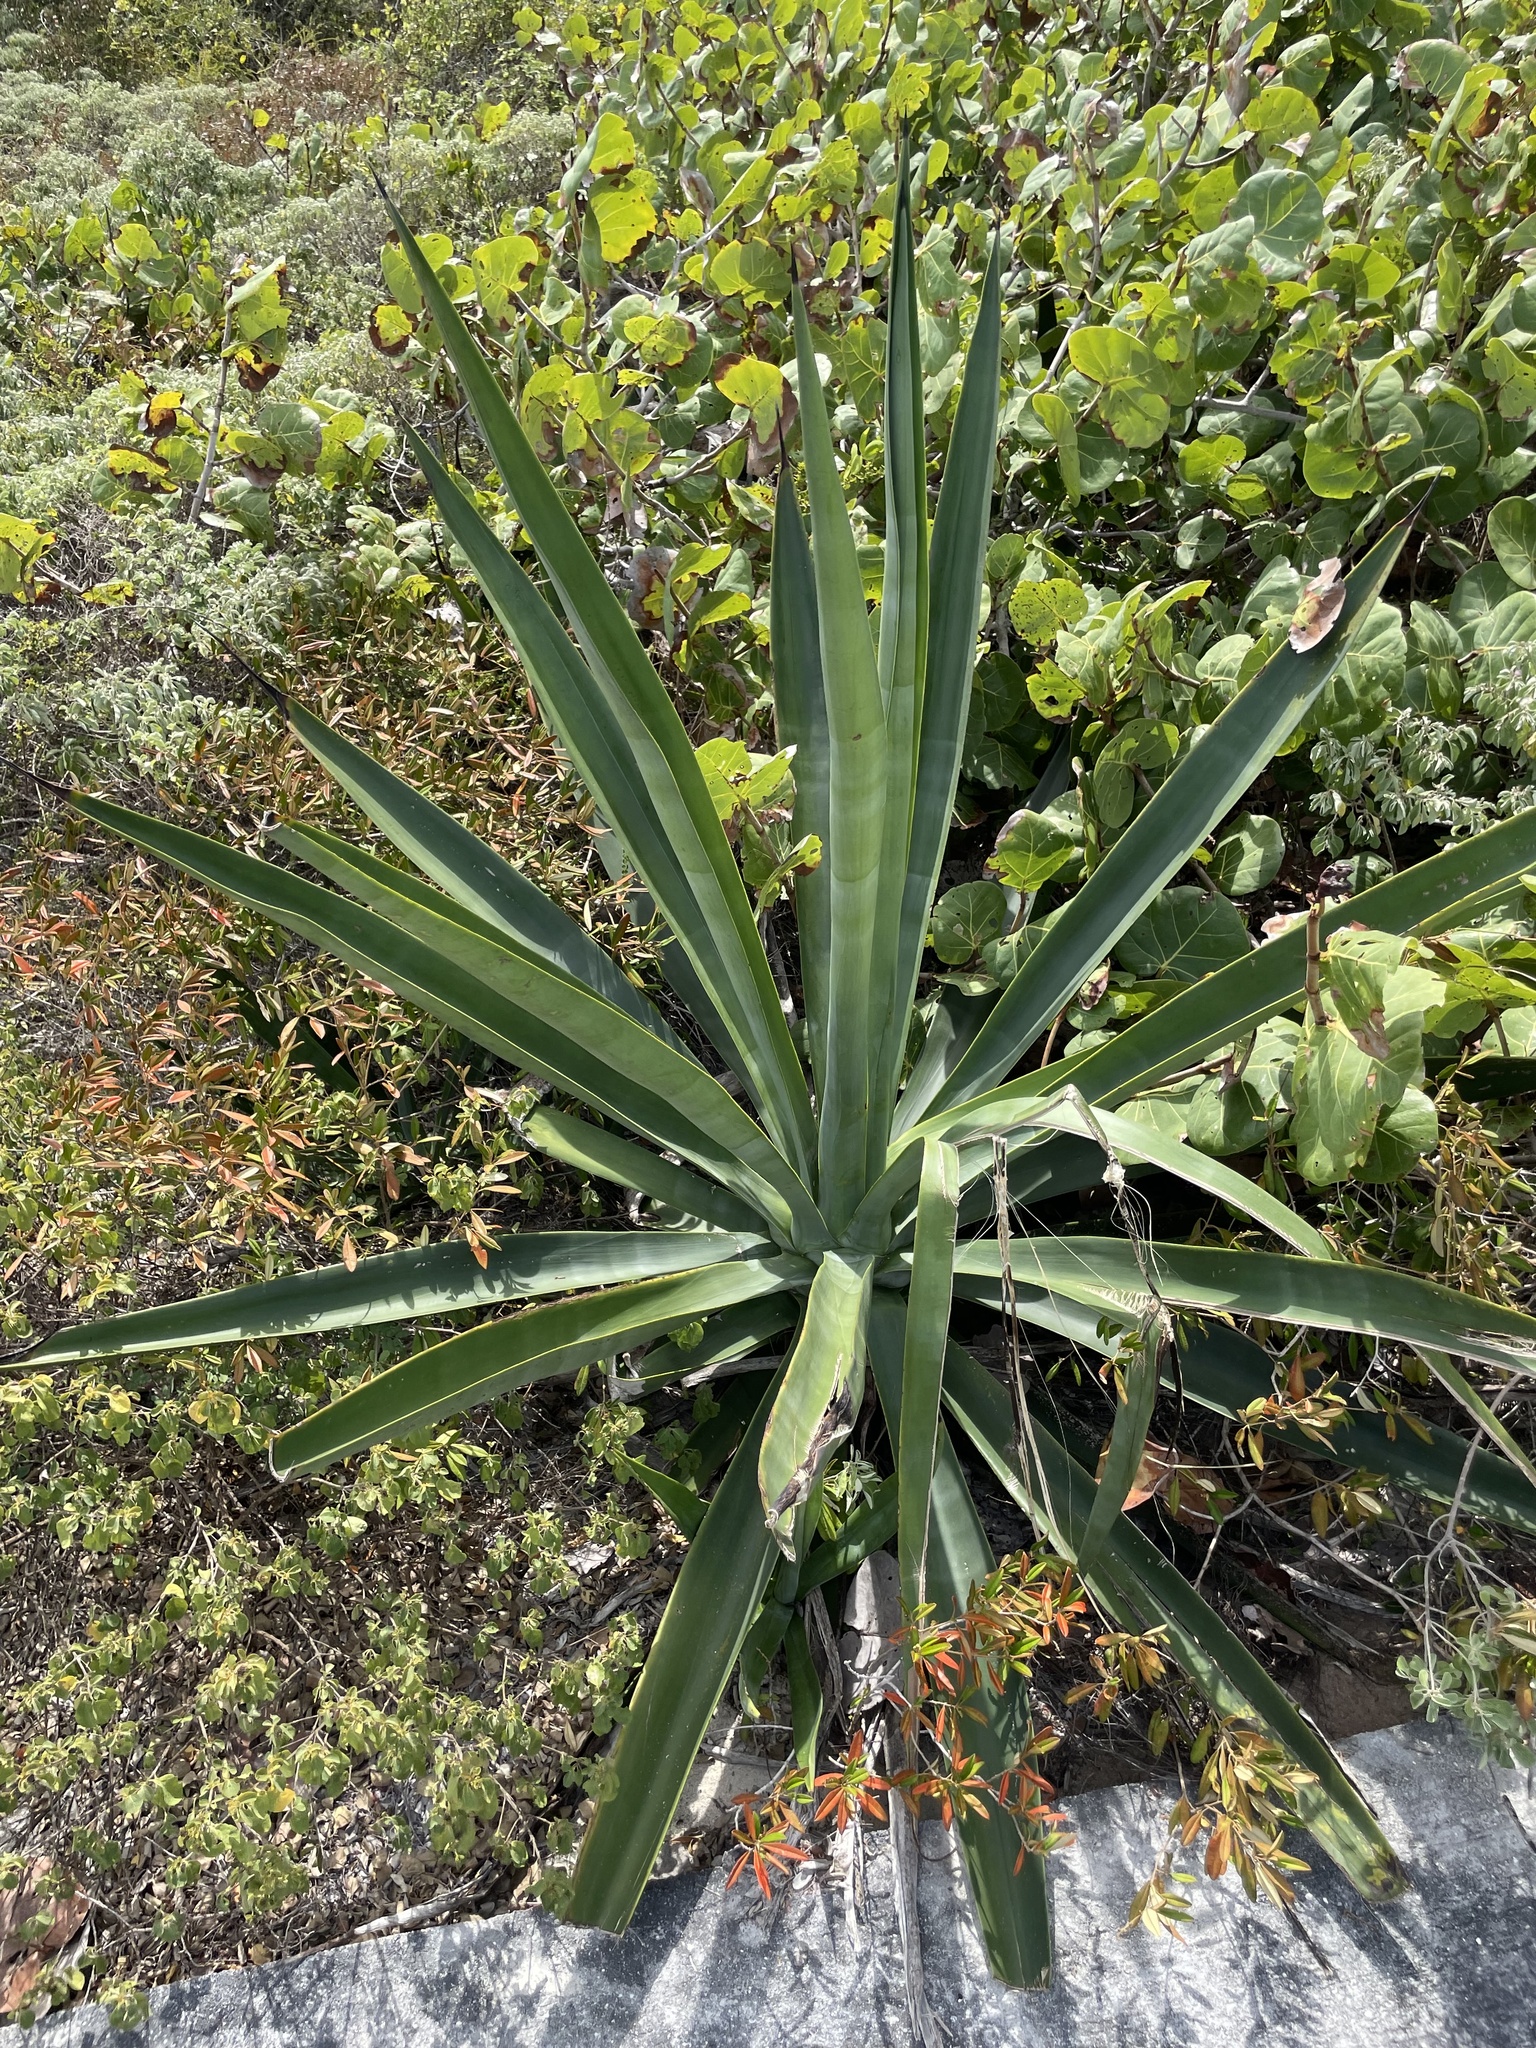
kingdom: Plantae
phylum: Tracheophyta
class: Liliopsida
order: Asparagales
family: Asparagaceae
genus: Agave
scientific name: Agave sisalana
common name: Sisal hemp
